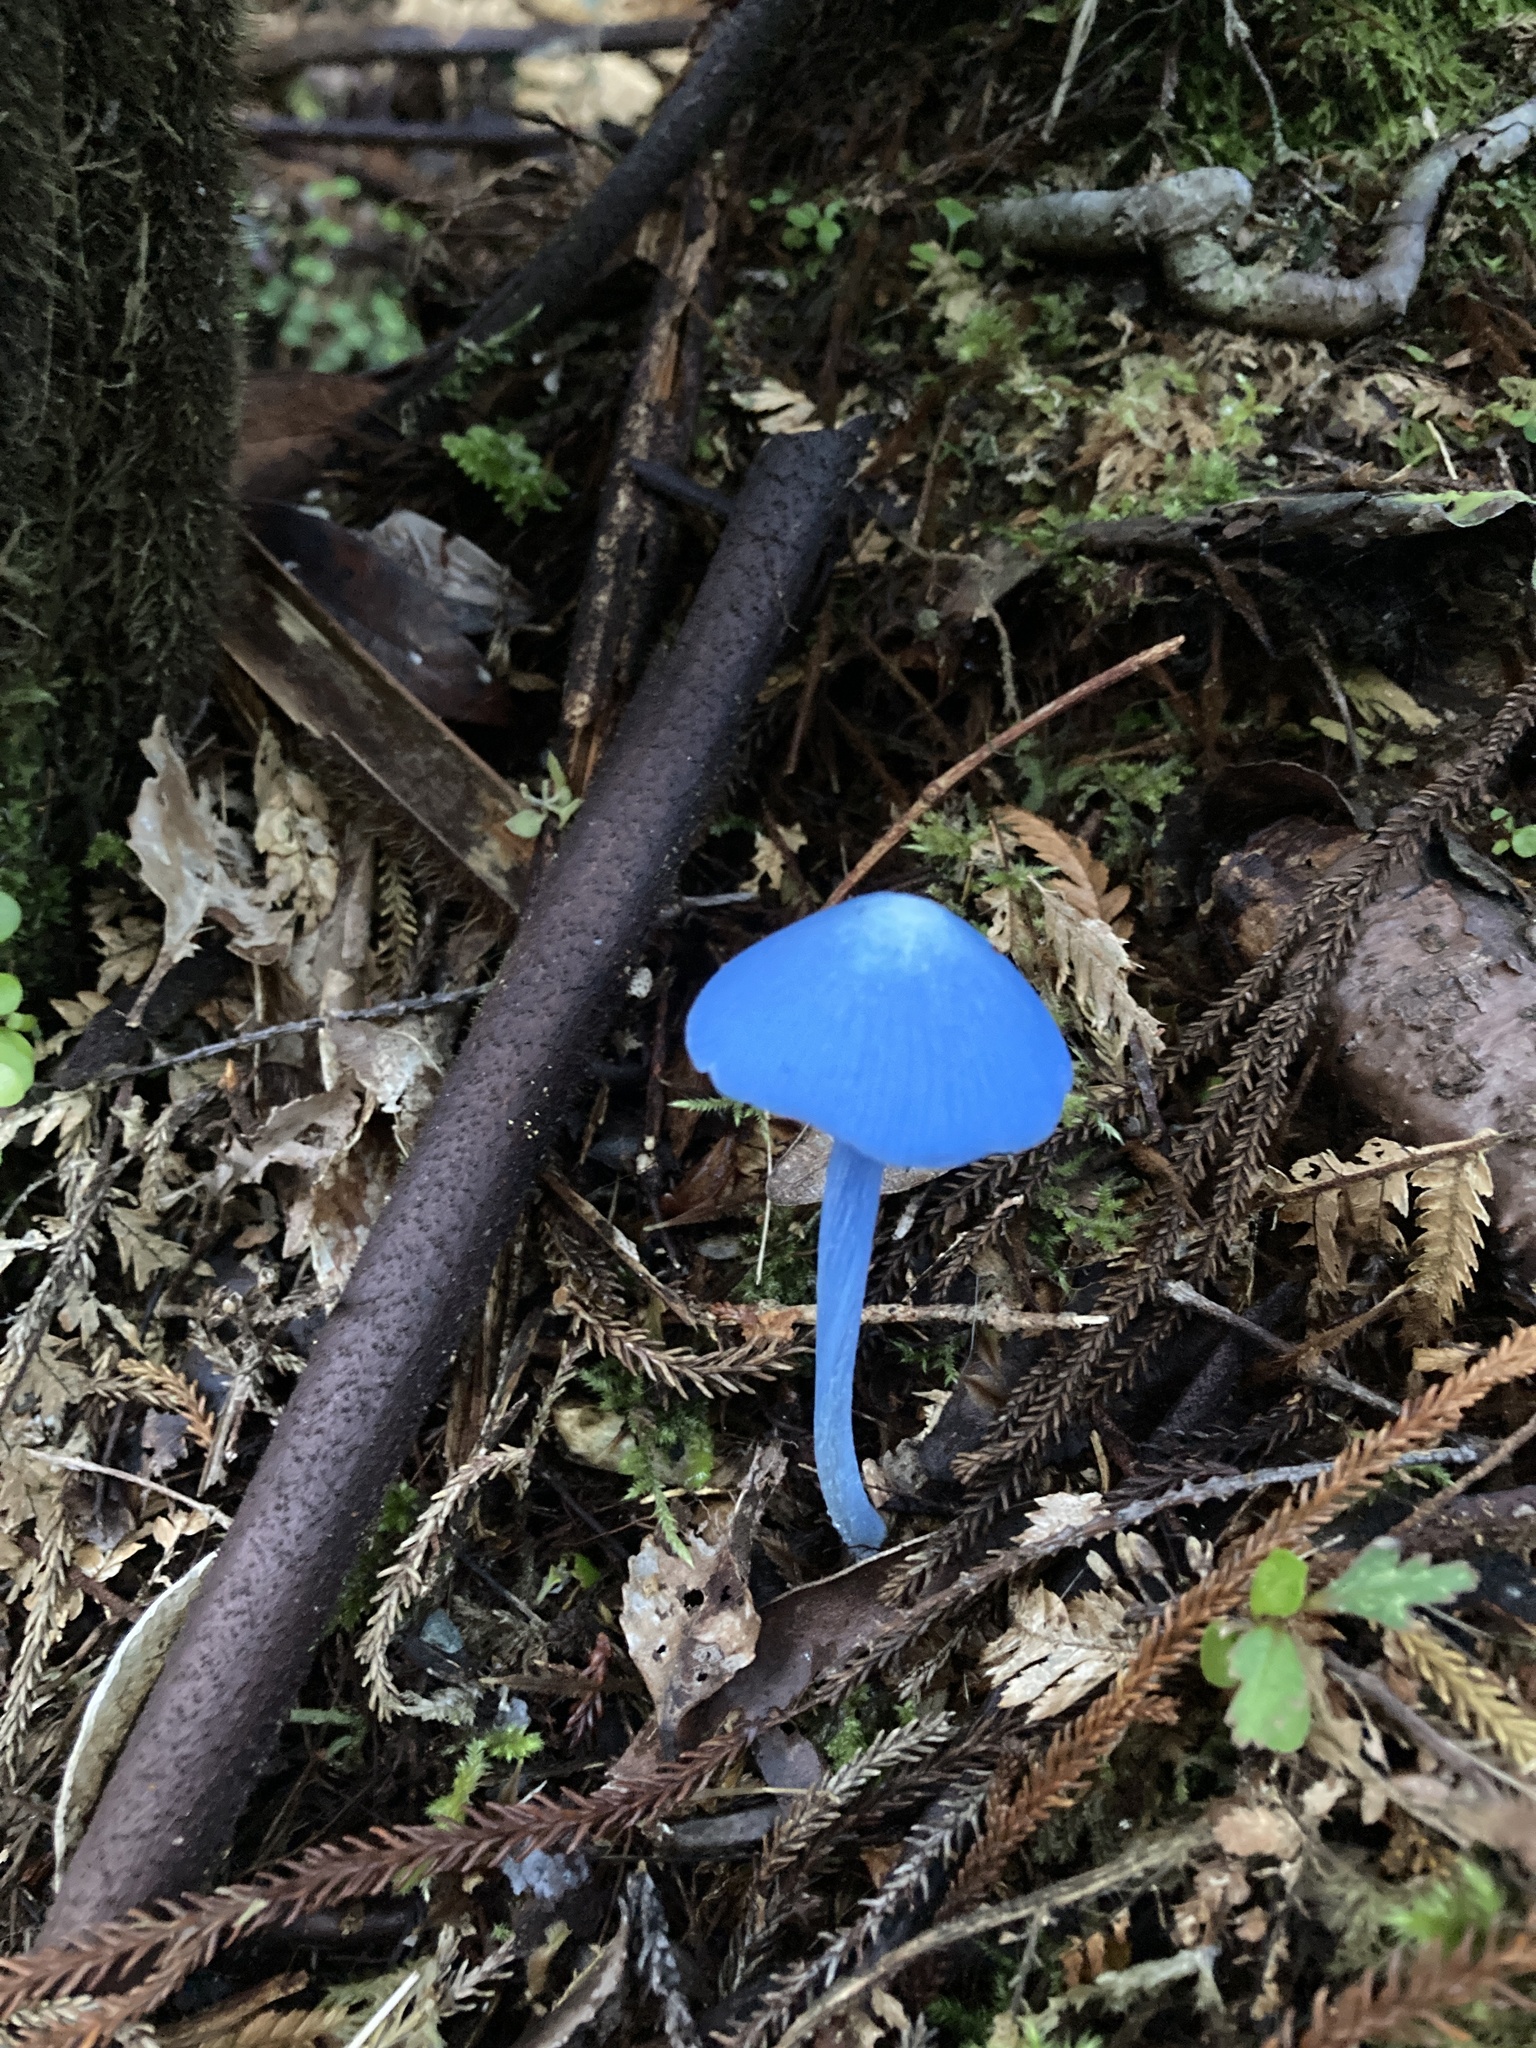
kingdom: Fungi
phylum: Basidiomycota
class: Agaricomycetes
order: Agaricales
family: Entolomataceae
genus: Entoloma
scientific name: Entoloma hochstetteri
